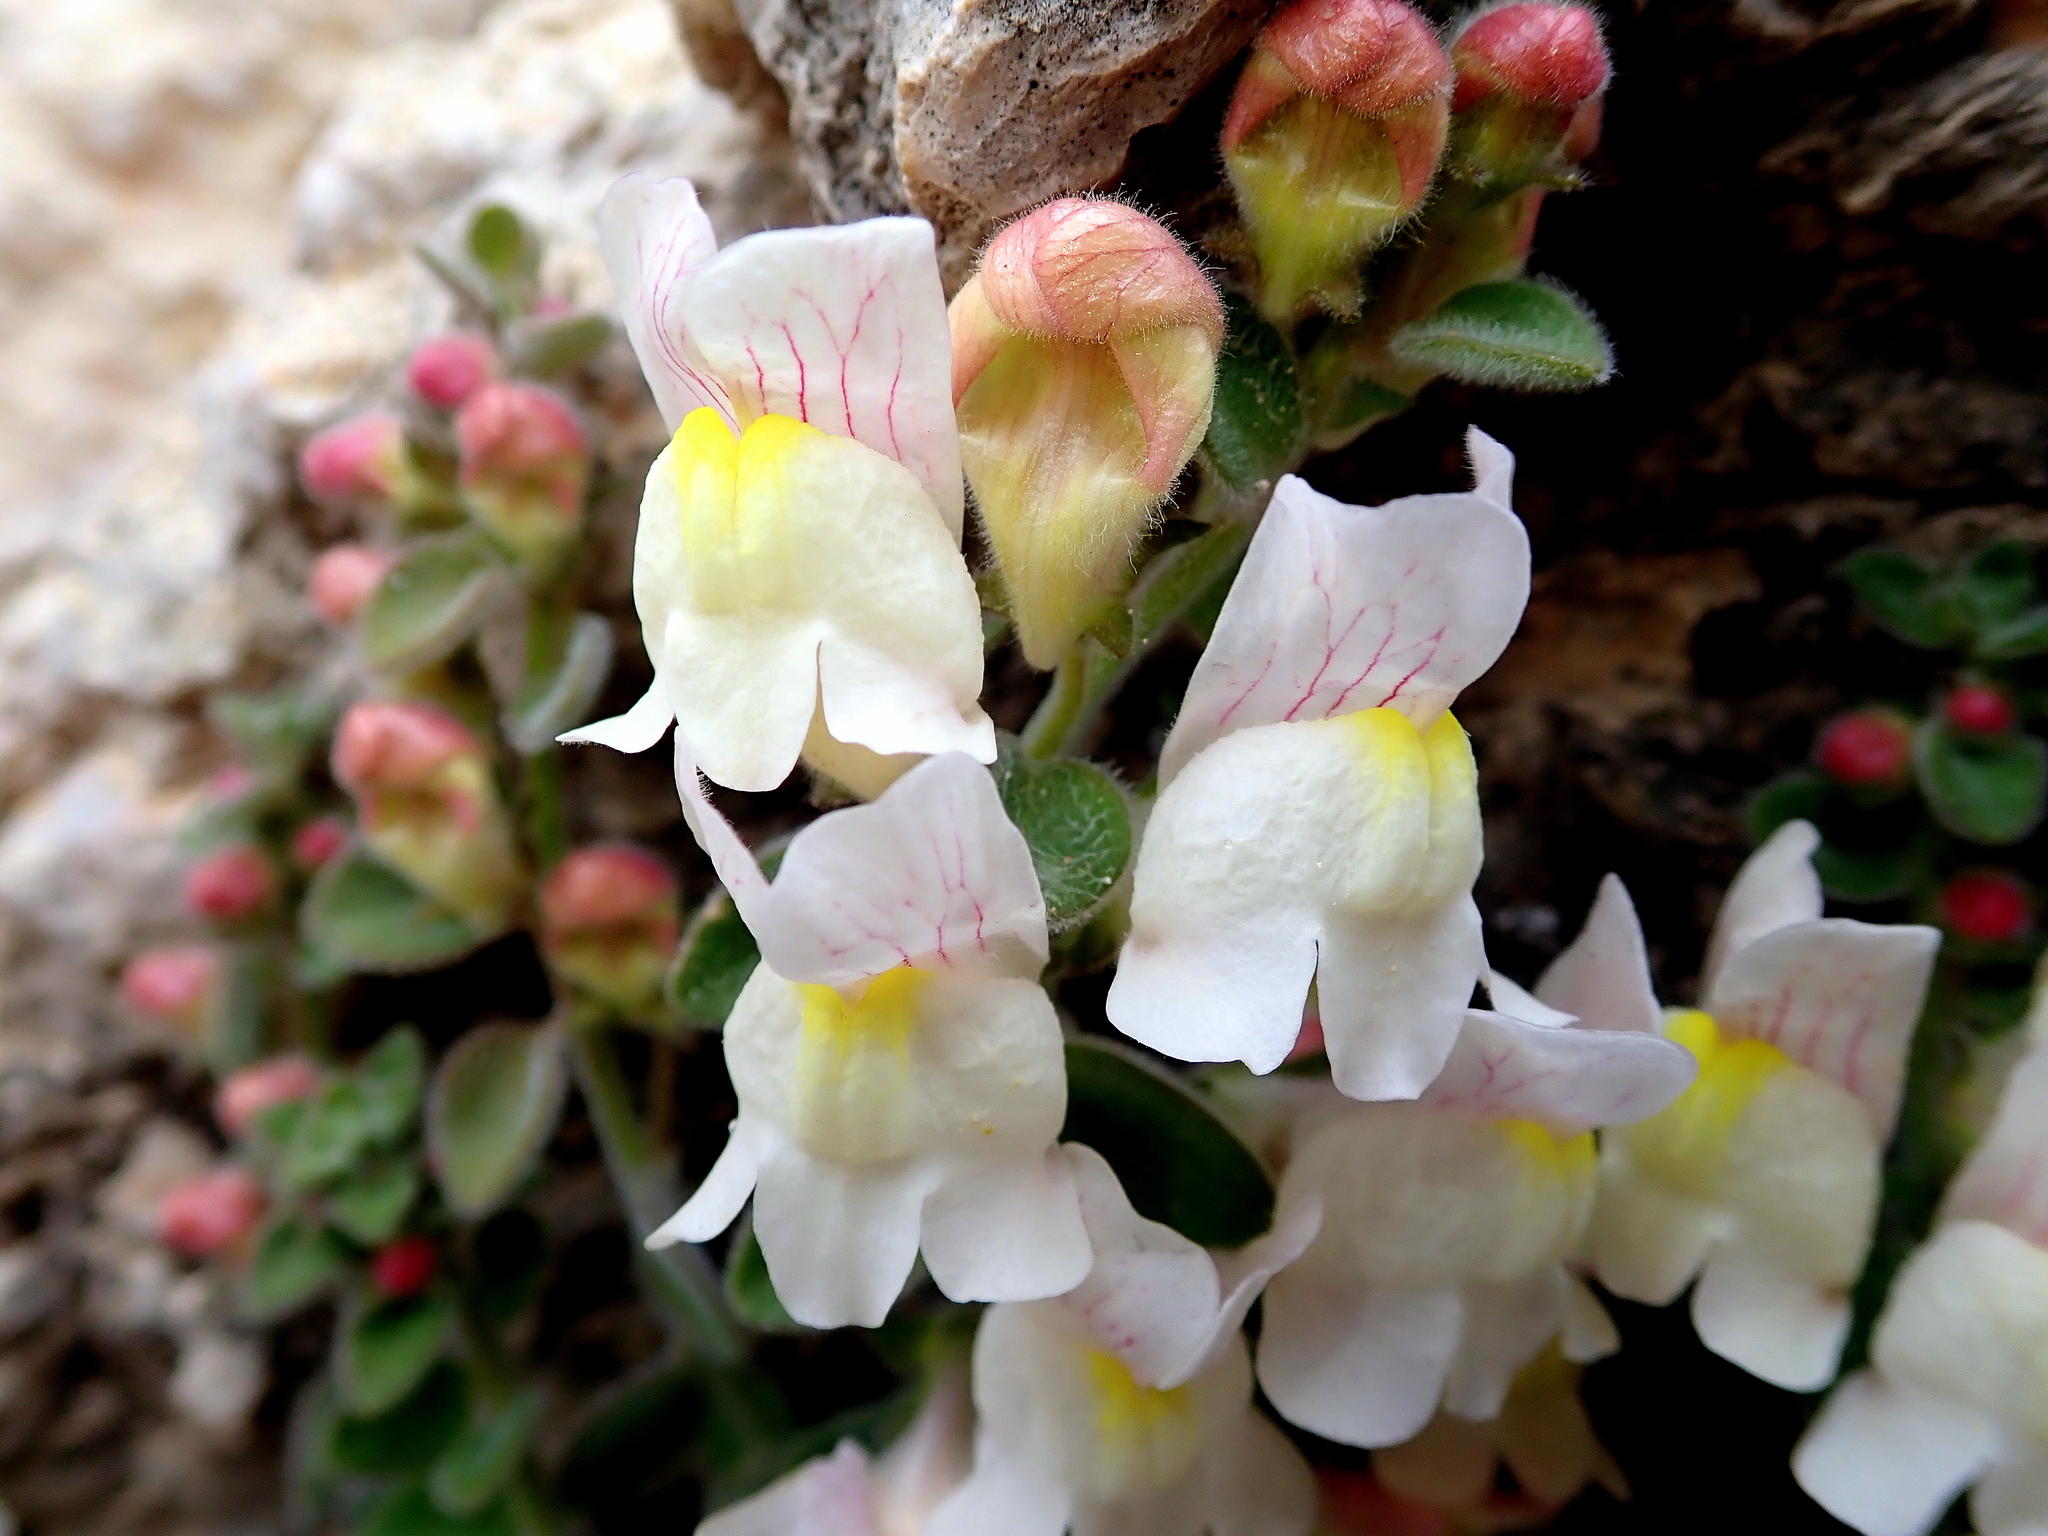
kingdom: Plantae
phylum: Tracheophyta
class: Magnoliopsida
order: Lamiales
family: Plantaginaceae
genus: Antirrhinum
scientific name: Antirrhinum molle
